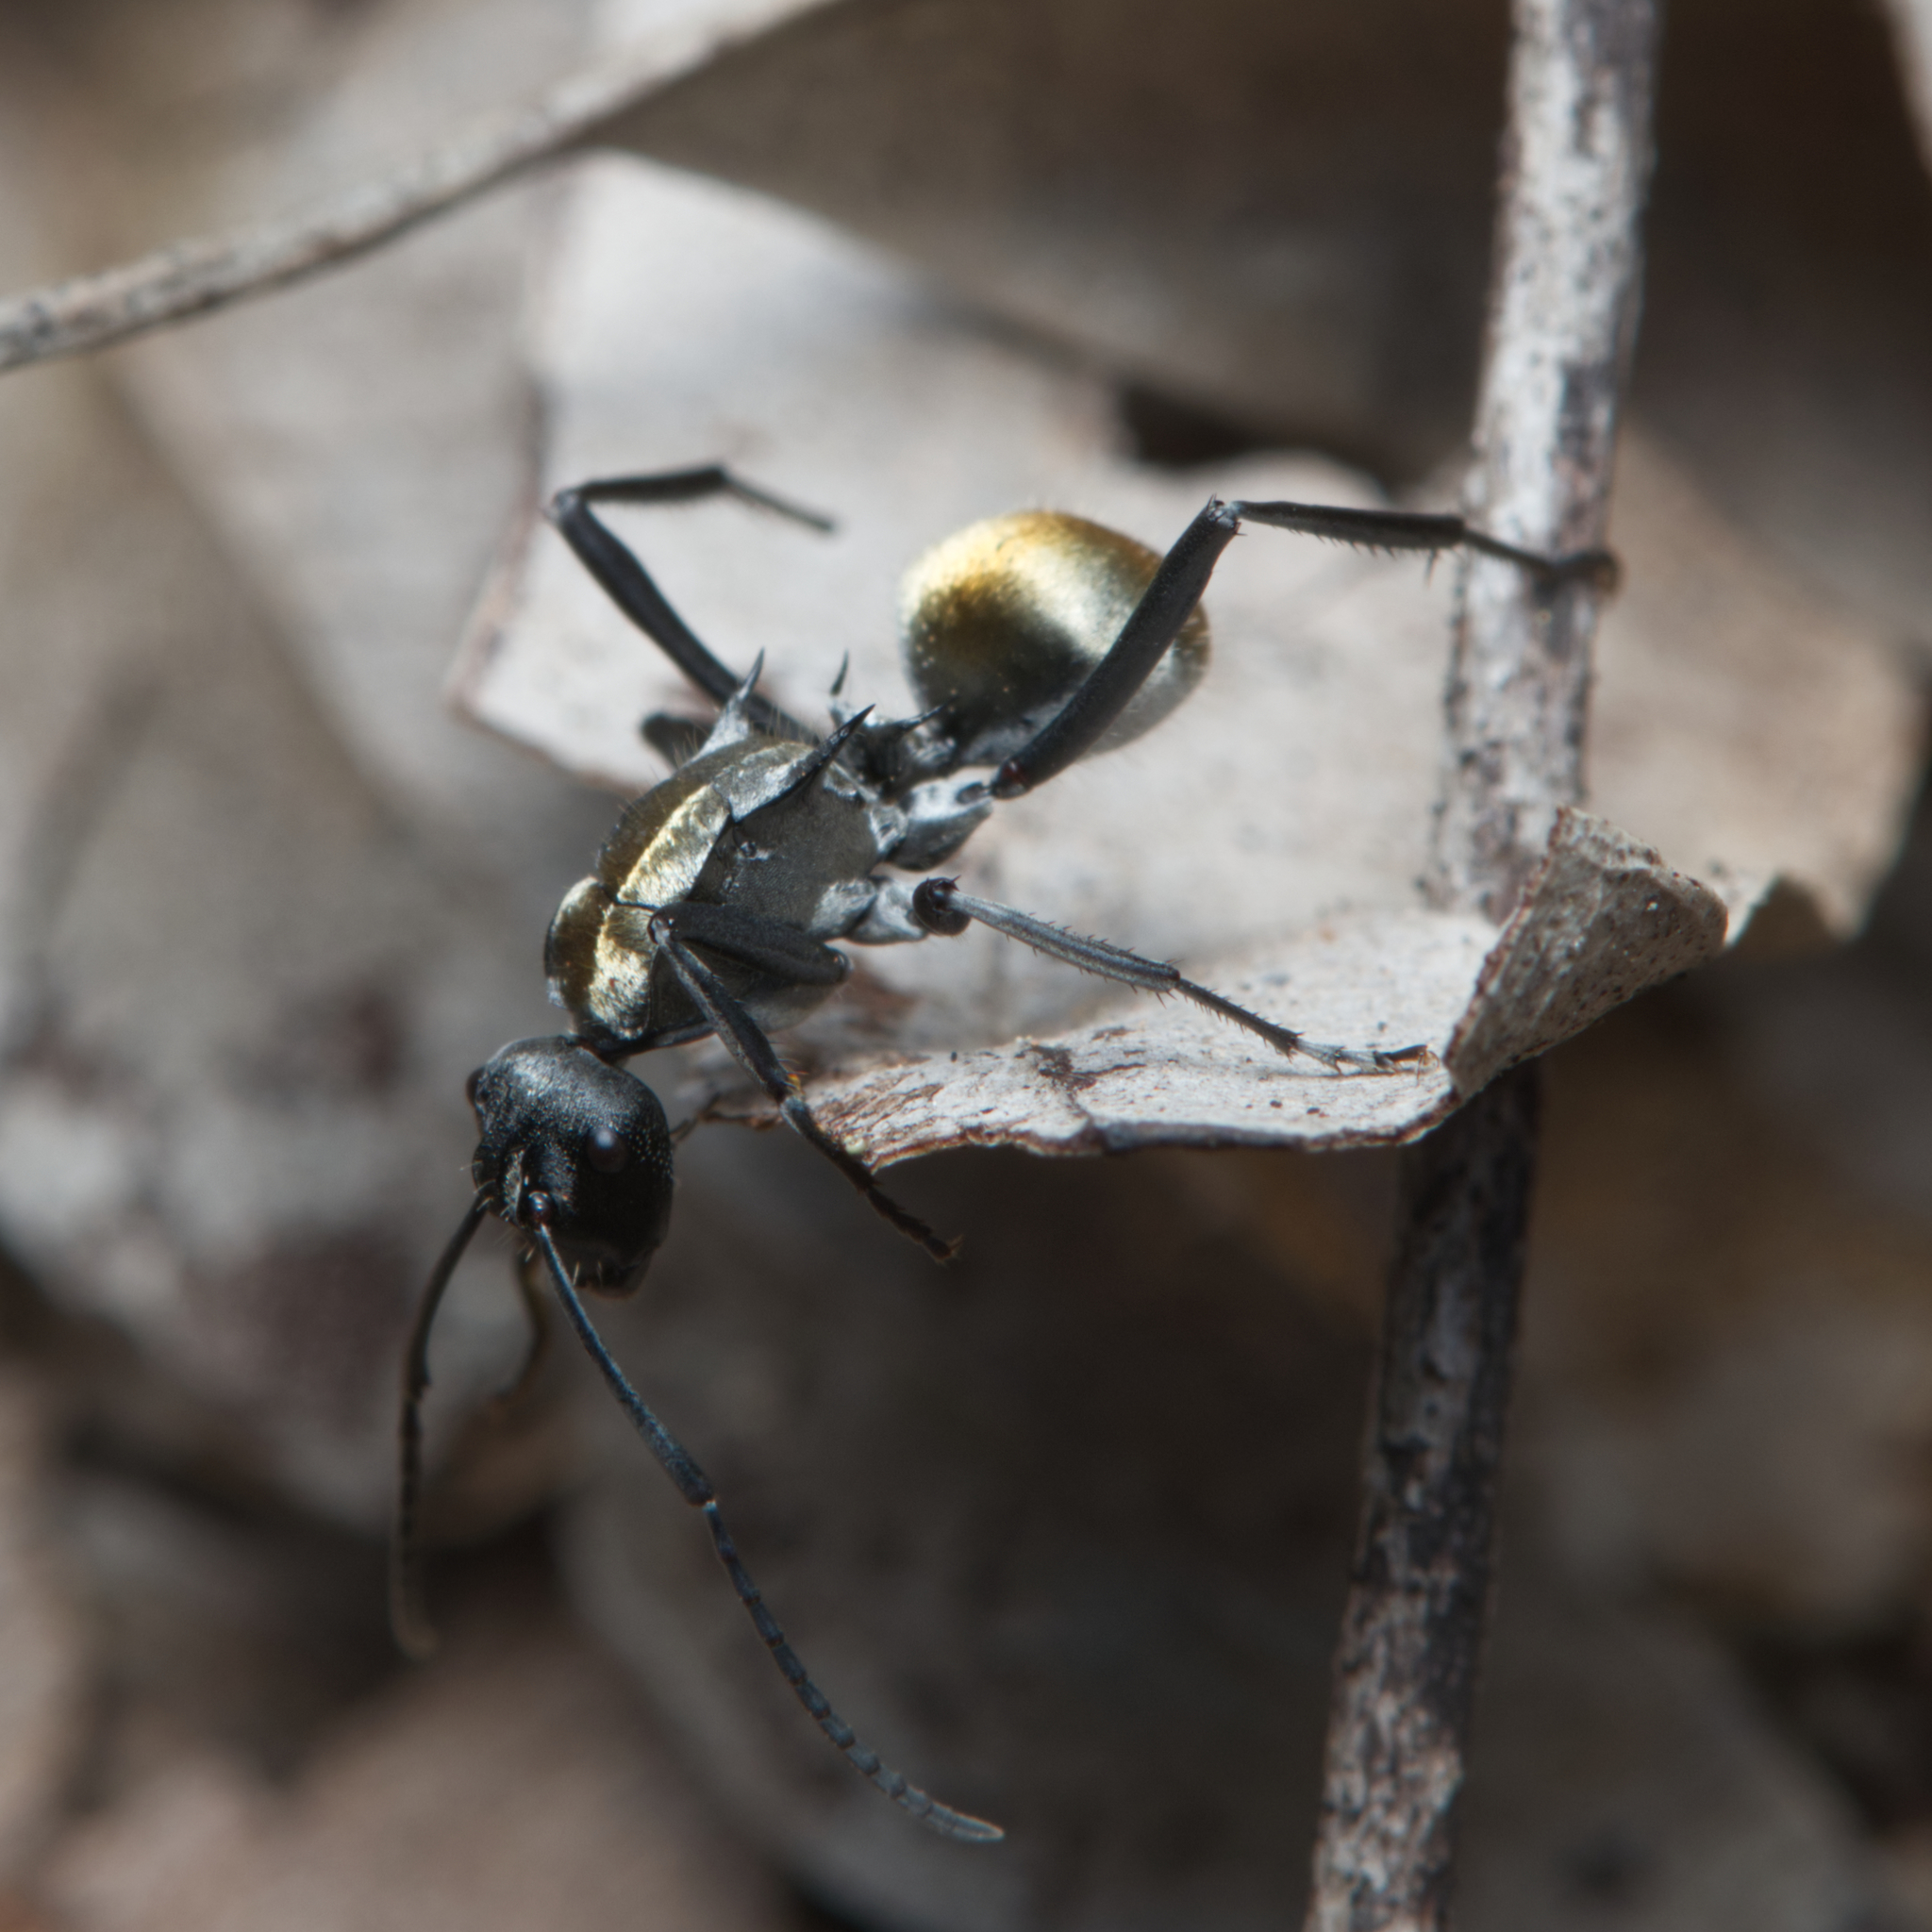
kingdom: Animalia
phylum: Arthropoda
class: Insecta
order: Hymenoptera
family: Formicidae
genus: Polyrhachis
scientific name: Polyrhachis ammon
